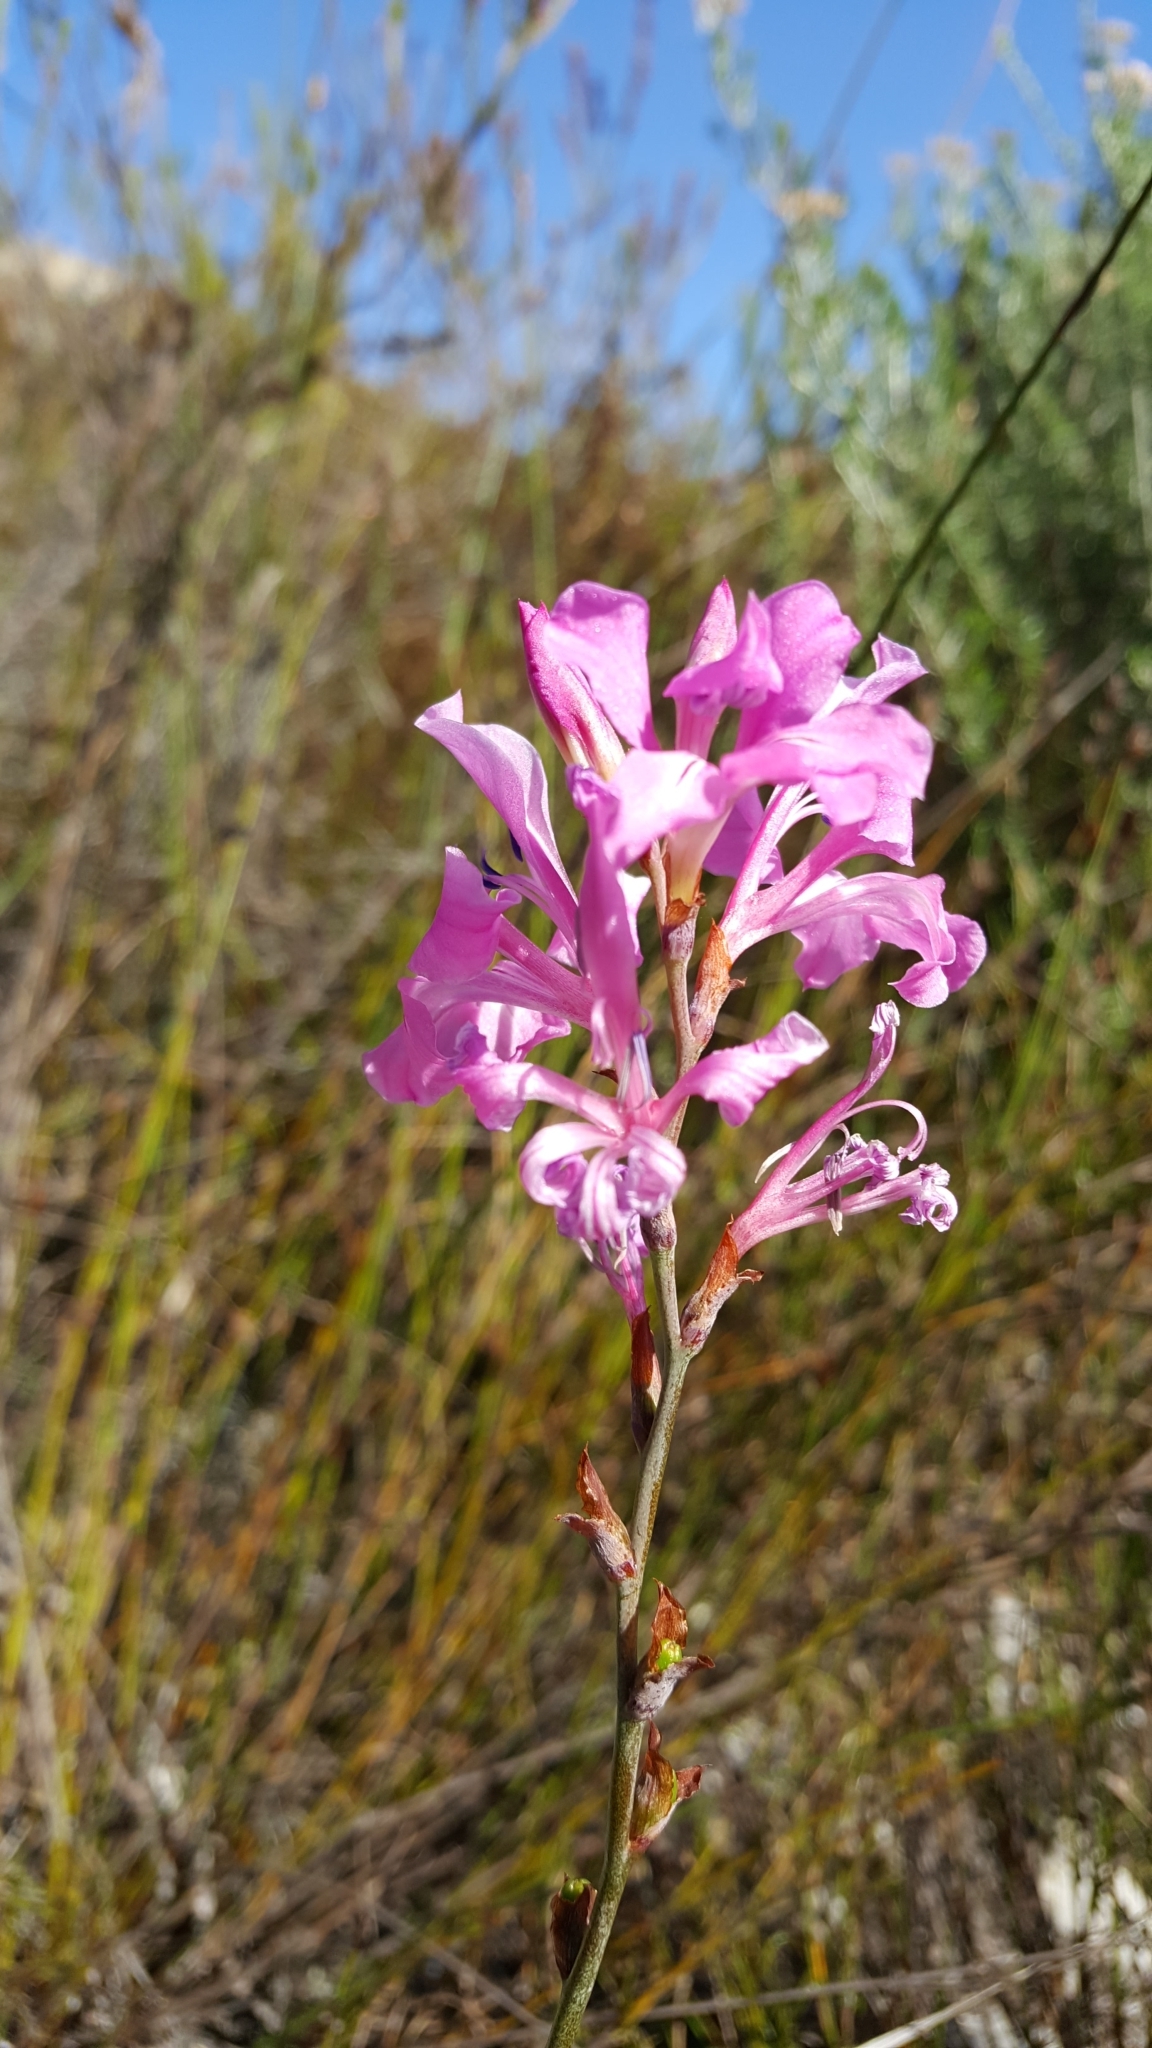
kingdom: Plantae
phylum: Tracheophyta
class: Liliopsida
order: Asparagales
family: Iridaceae
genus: Tritoniopsis
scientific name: Tritoniopsis lata
